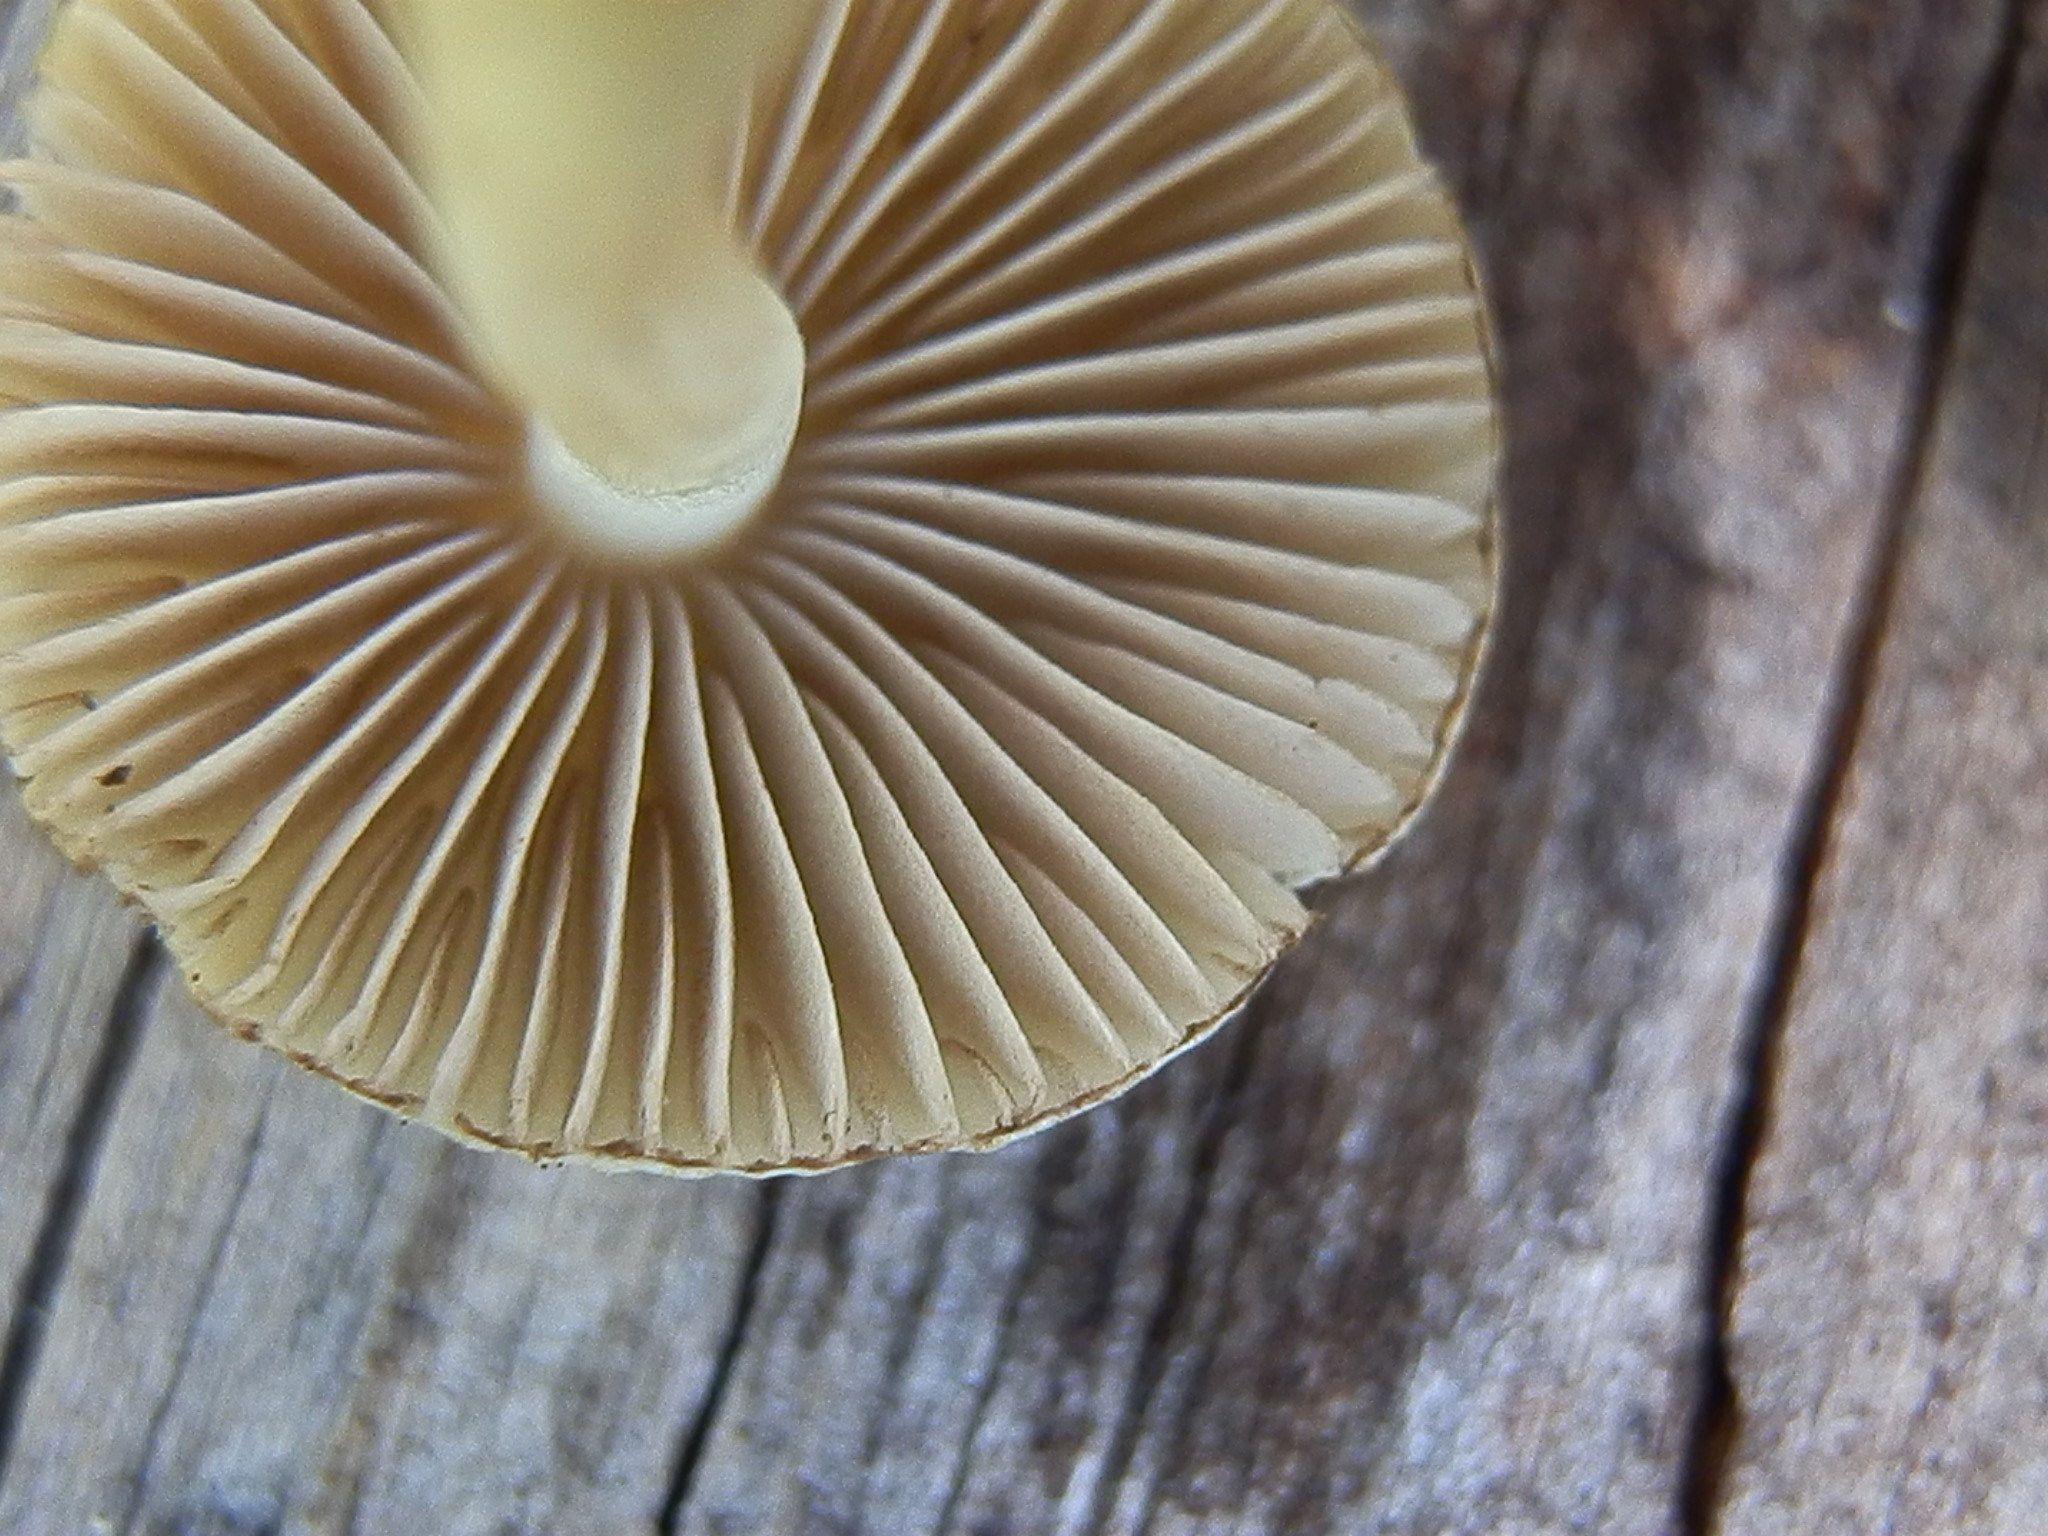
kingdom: Fungi
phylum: Basidiomycota
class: Agaricomycetes
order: Agaricales
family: Inocybaceae
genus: Inocybe
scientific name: Inocybe geophylla
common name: White fibrecap
